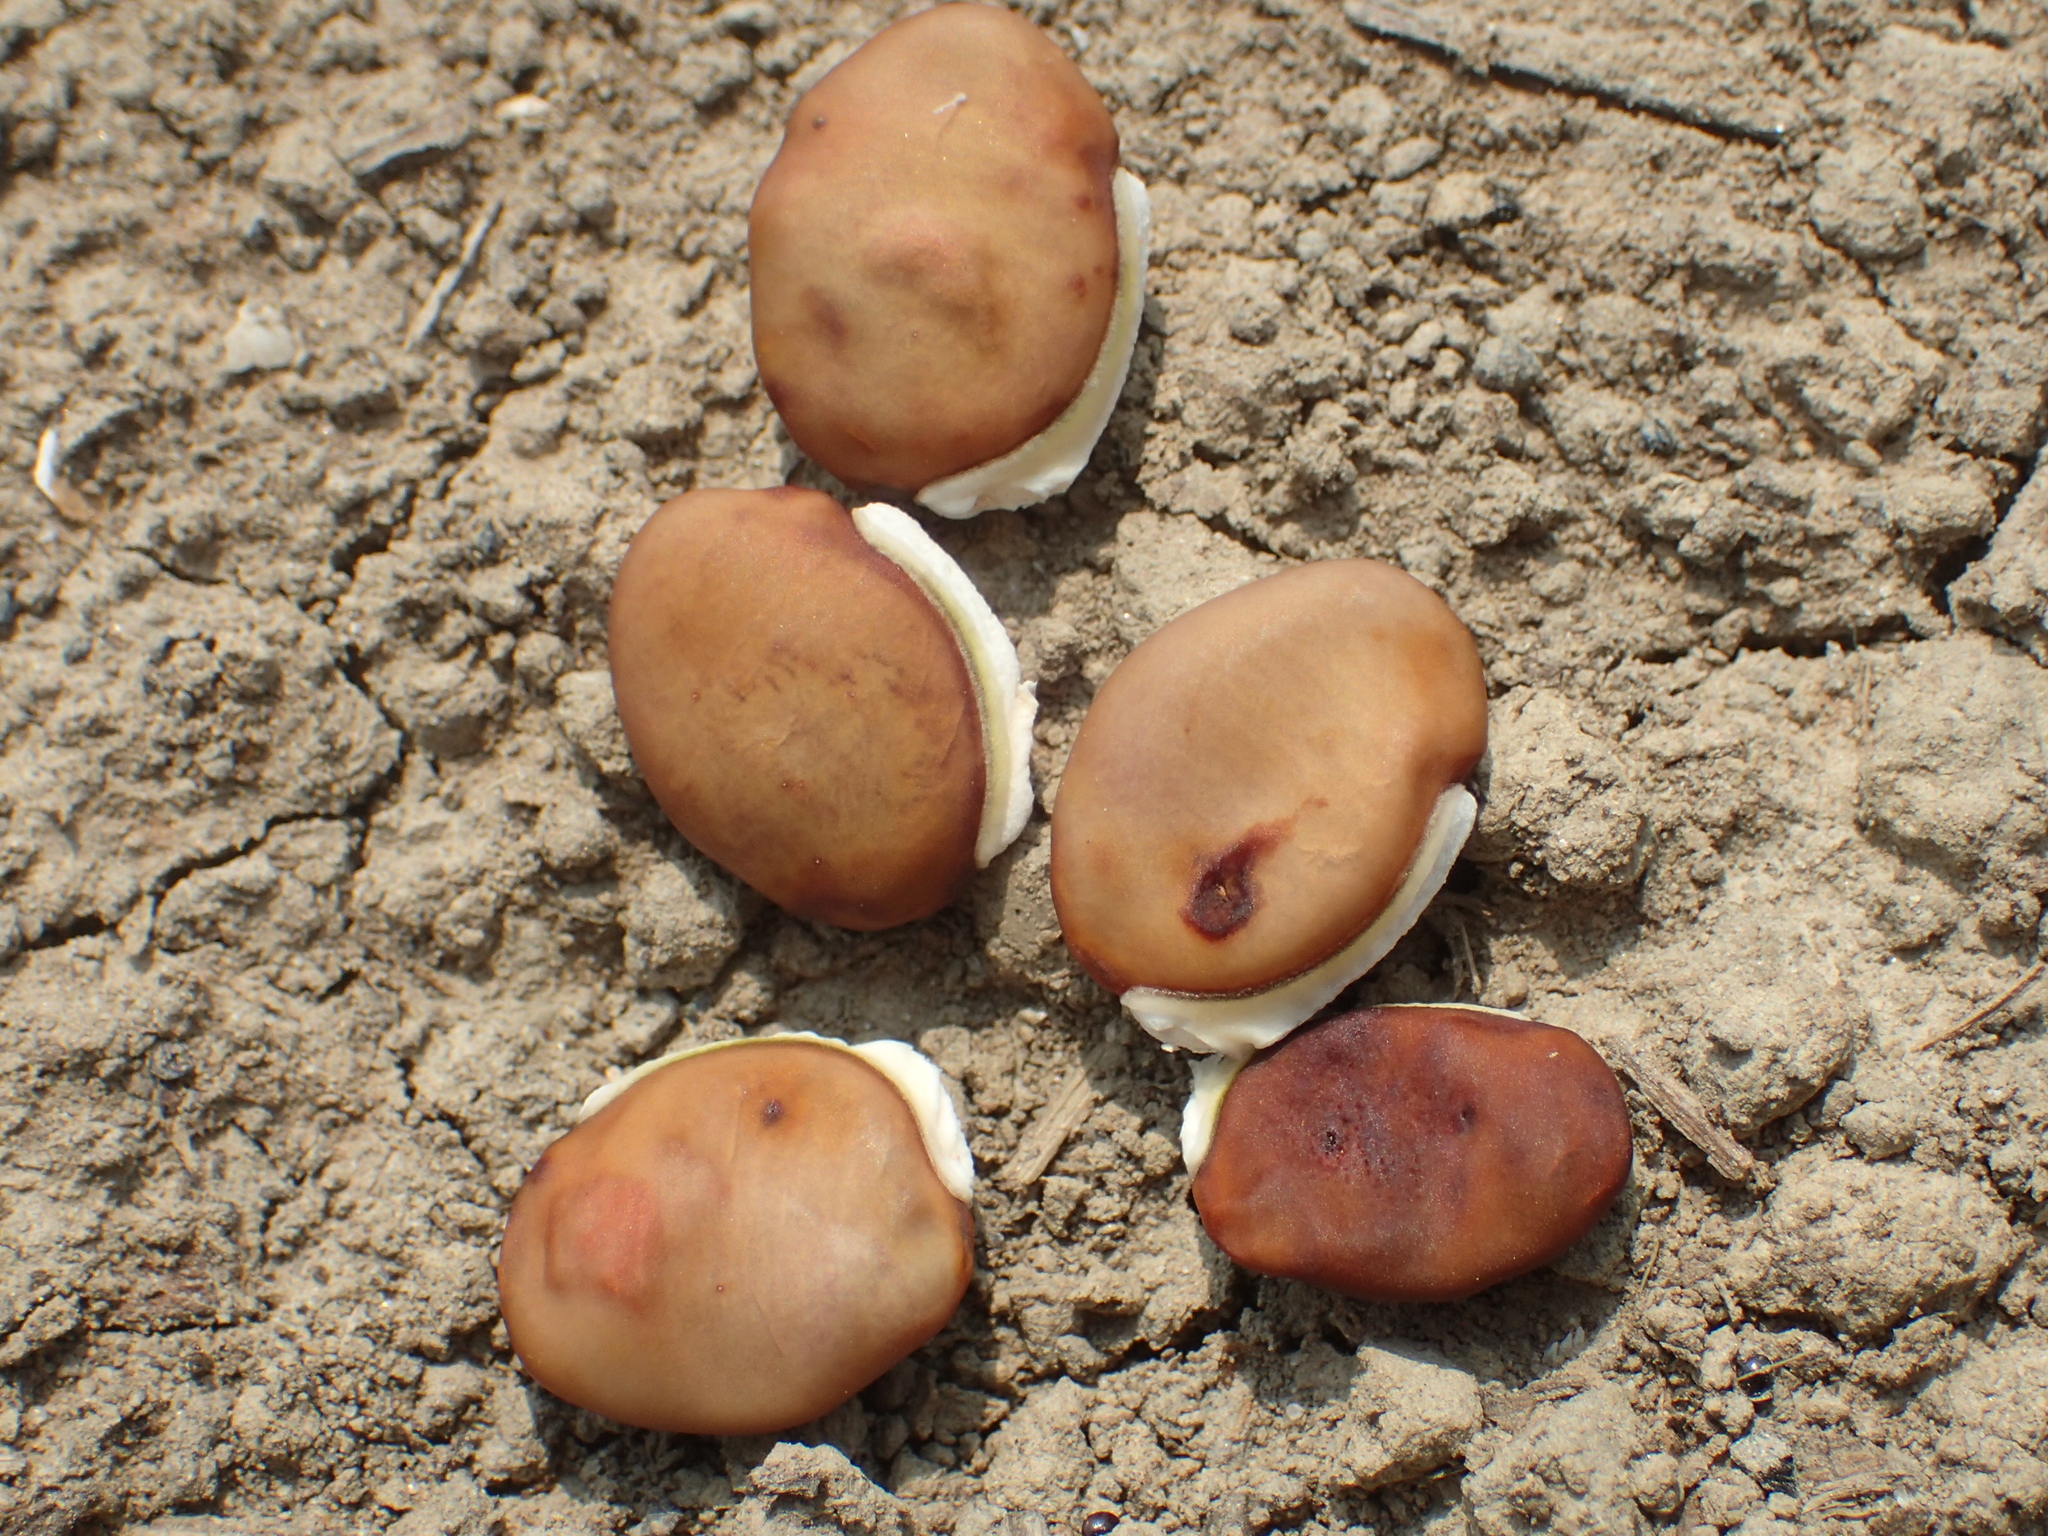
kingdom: Plantae
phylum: Tracheophyta
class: Magnoliopsida
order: Fabales
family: Fabaceae
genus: Lablab
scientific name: Lablab purpureus
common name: Lablab-bean
